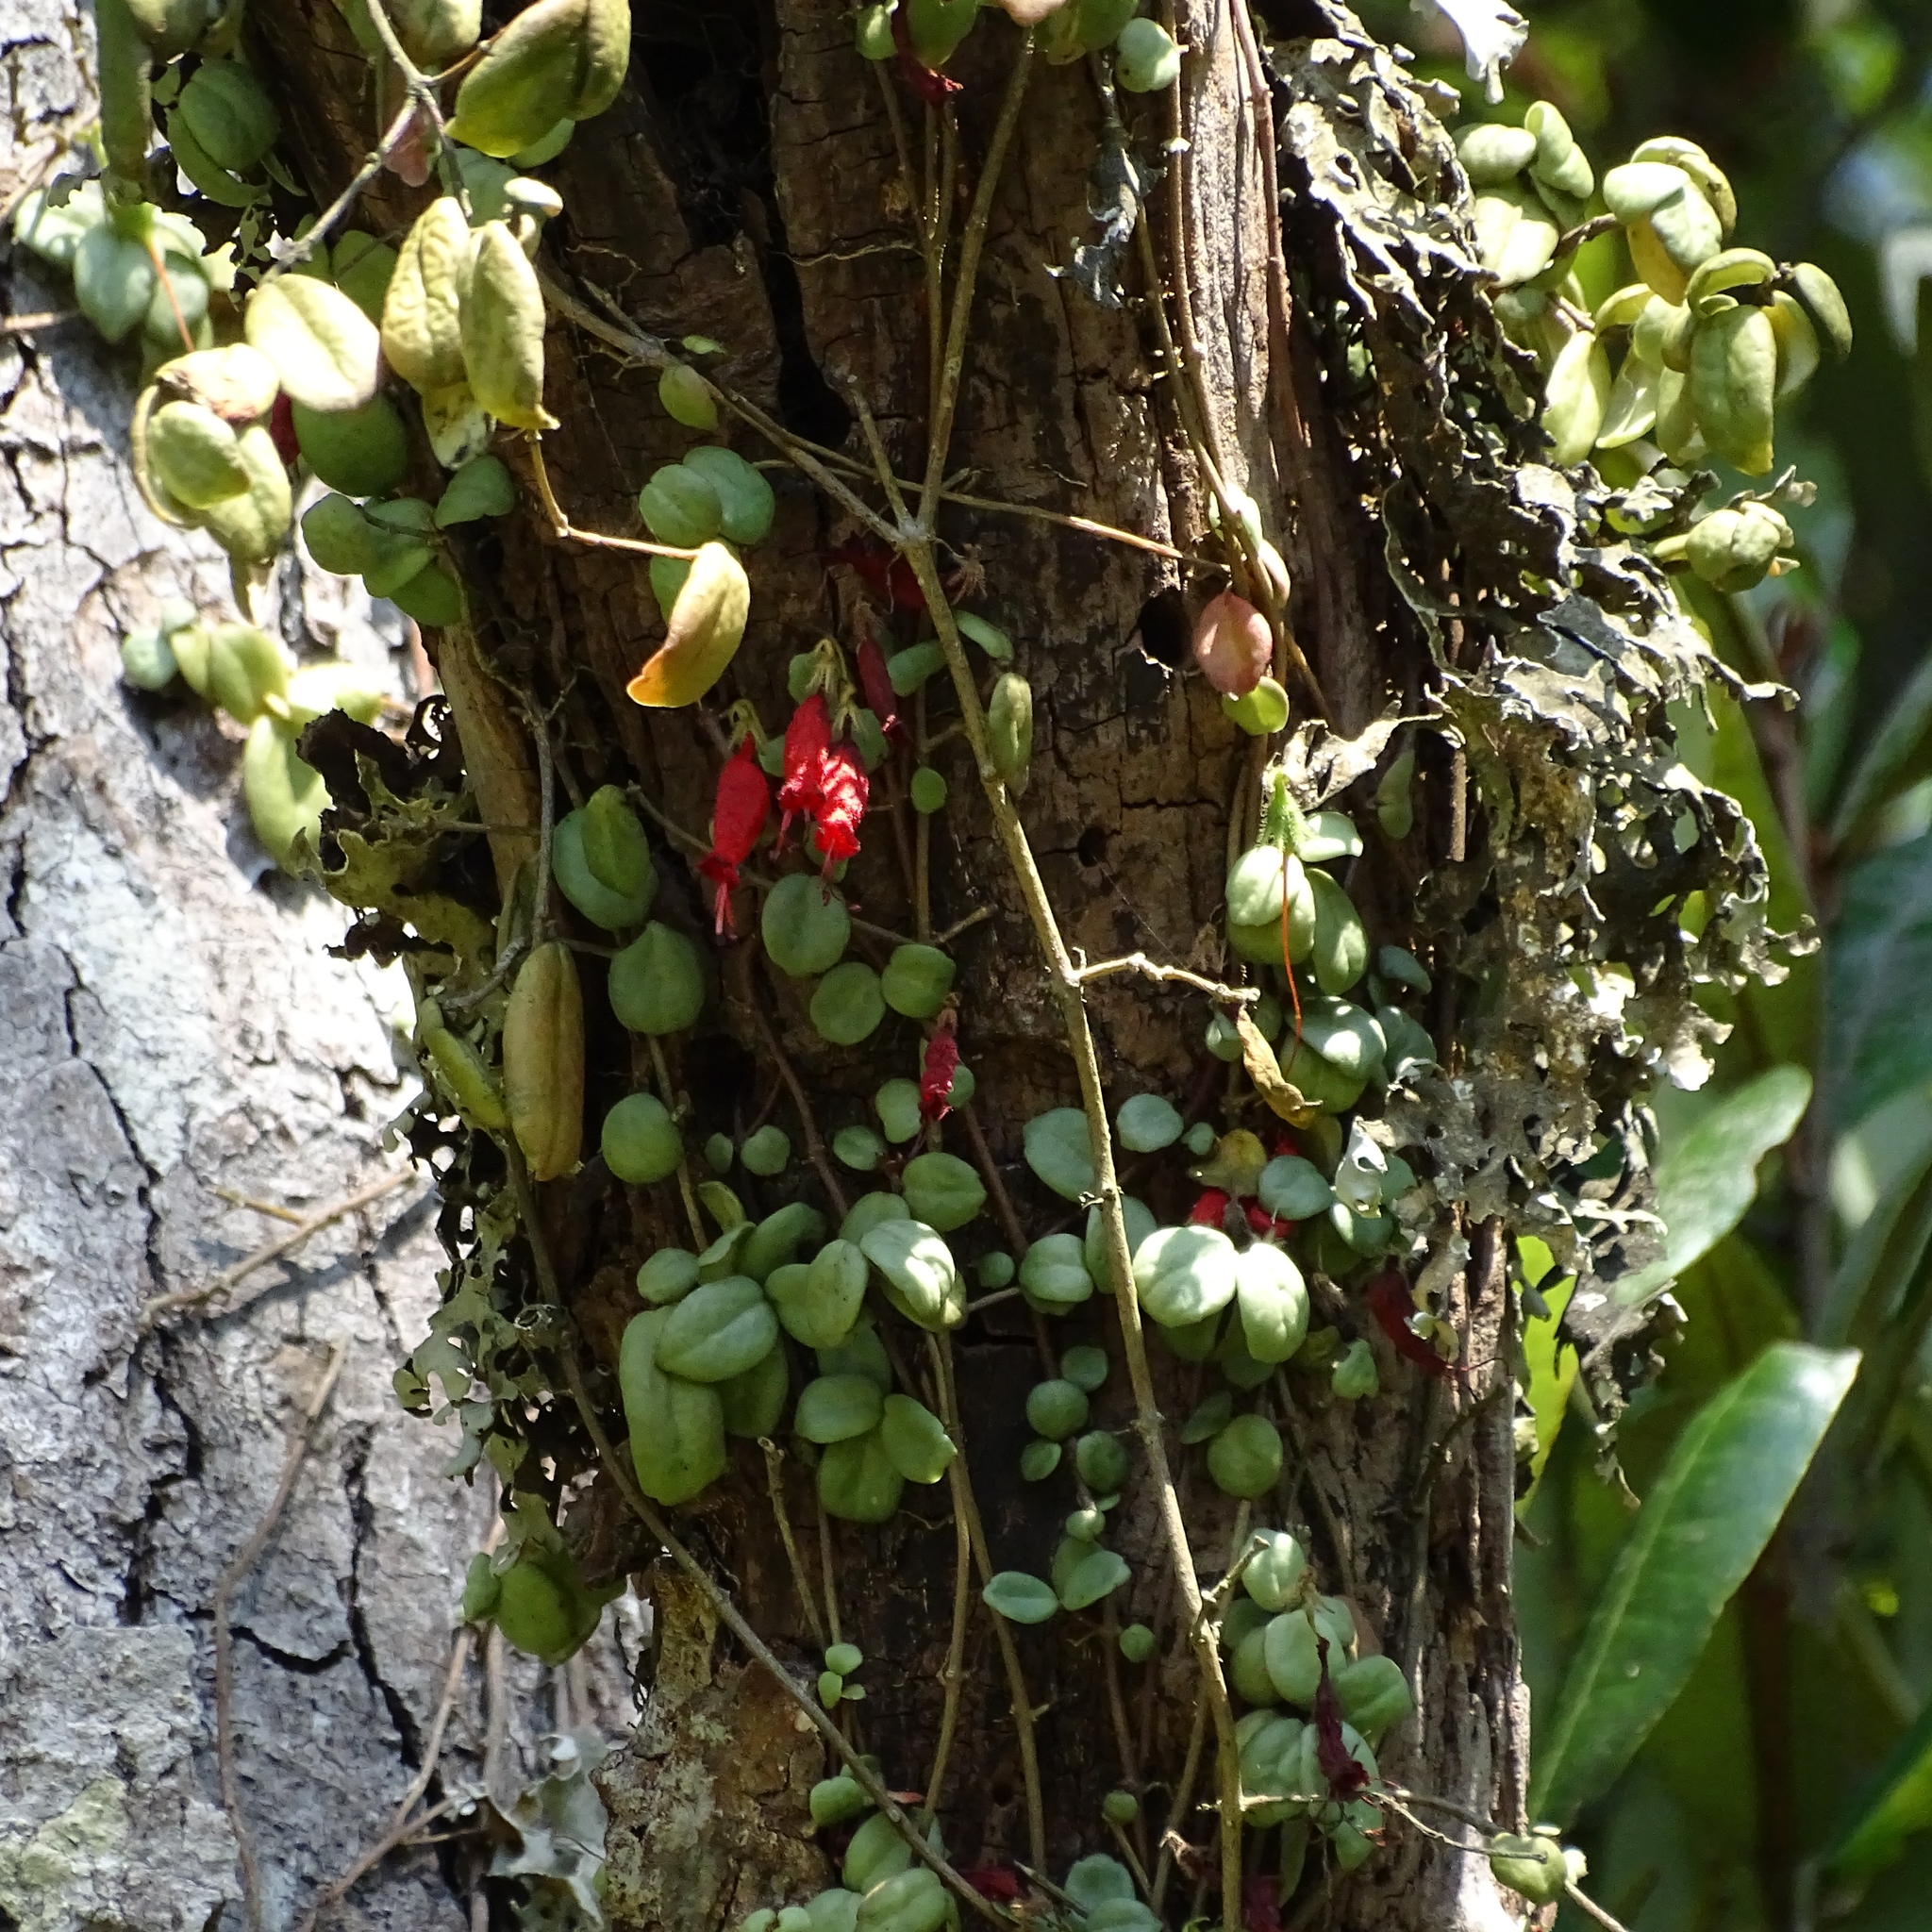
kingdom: Plantae
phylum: Tracheophyta
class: Magnoliopsida
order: Lamiales
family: Gesneriaceae
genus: Sarmienta
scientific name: Sarmienta scandens
